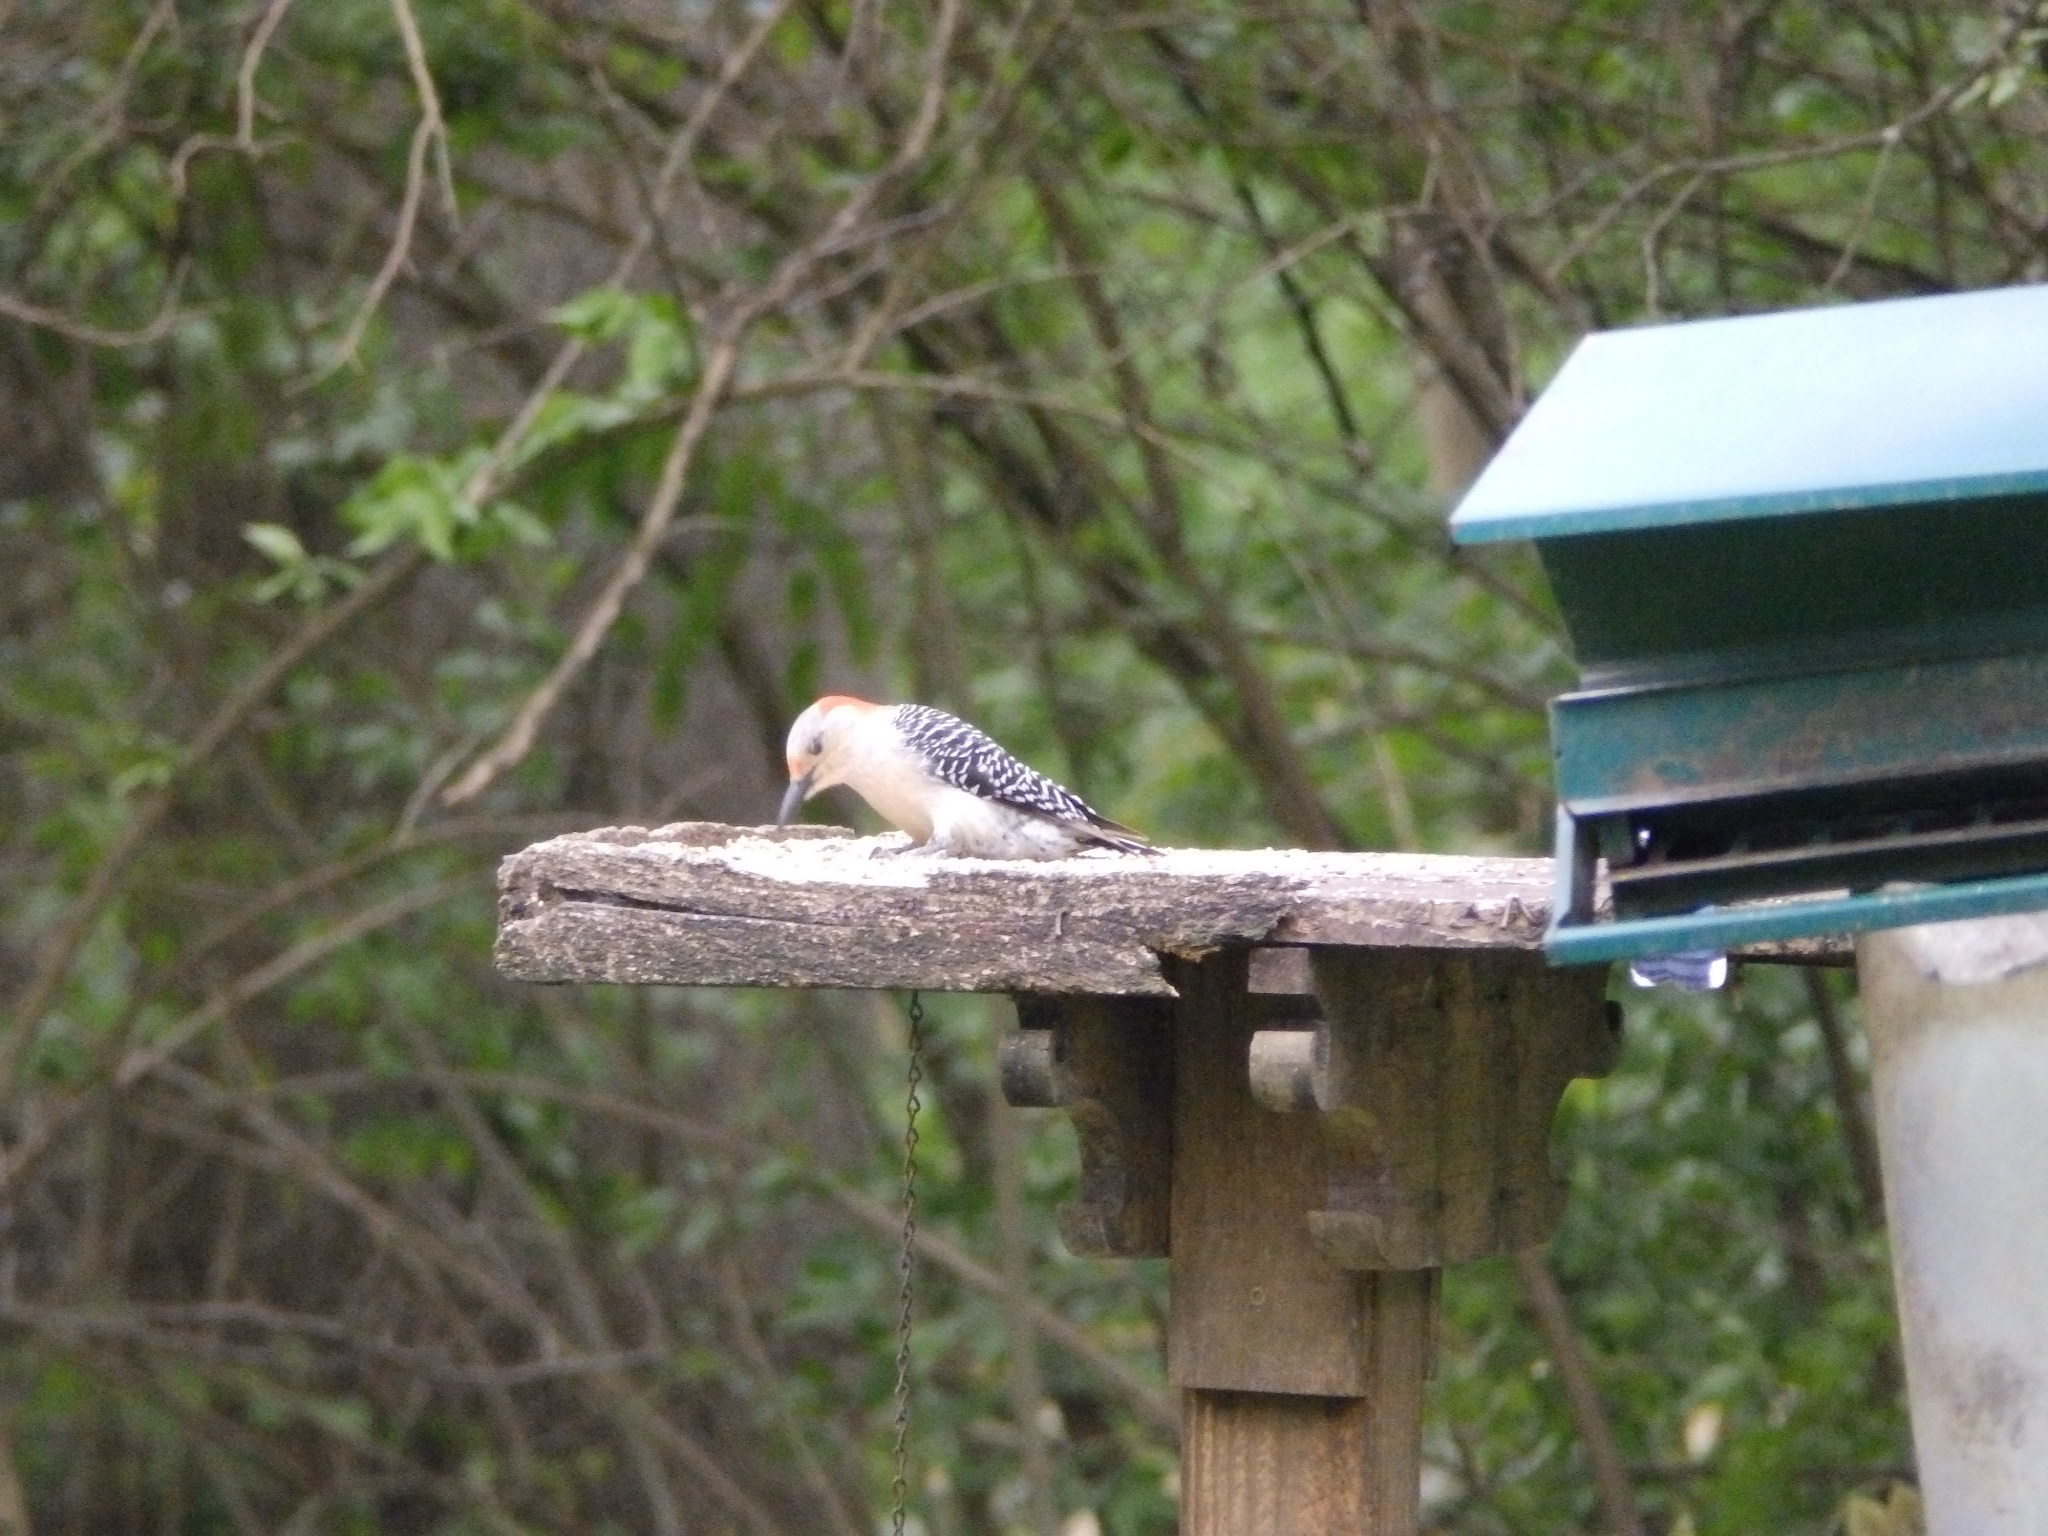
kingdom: Animalia
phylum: Chordata
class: Aves
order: Piciformes
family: Picidae
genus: Melanerpes
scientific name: Melanerpes carolinus
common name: Red-bellied woodpecker
